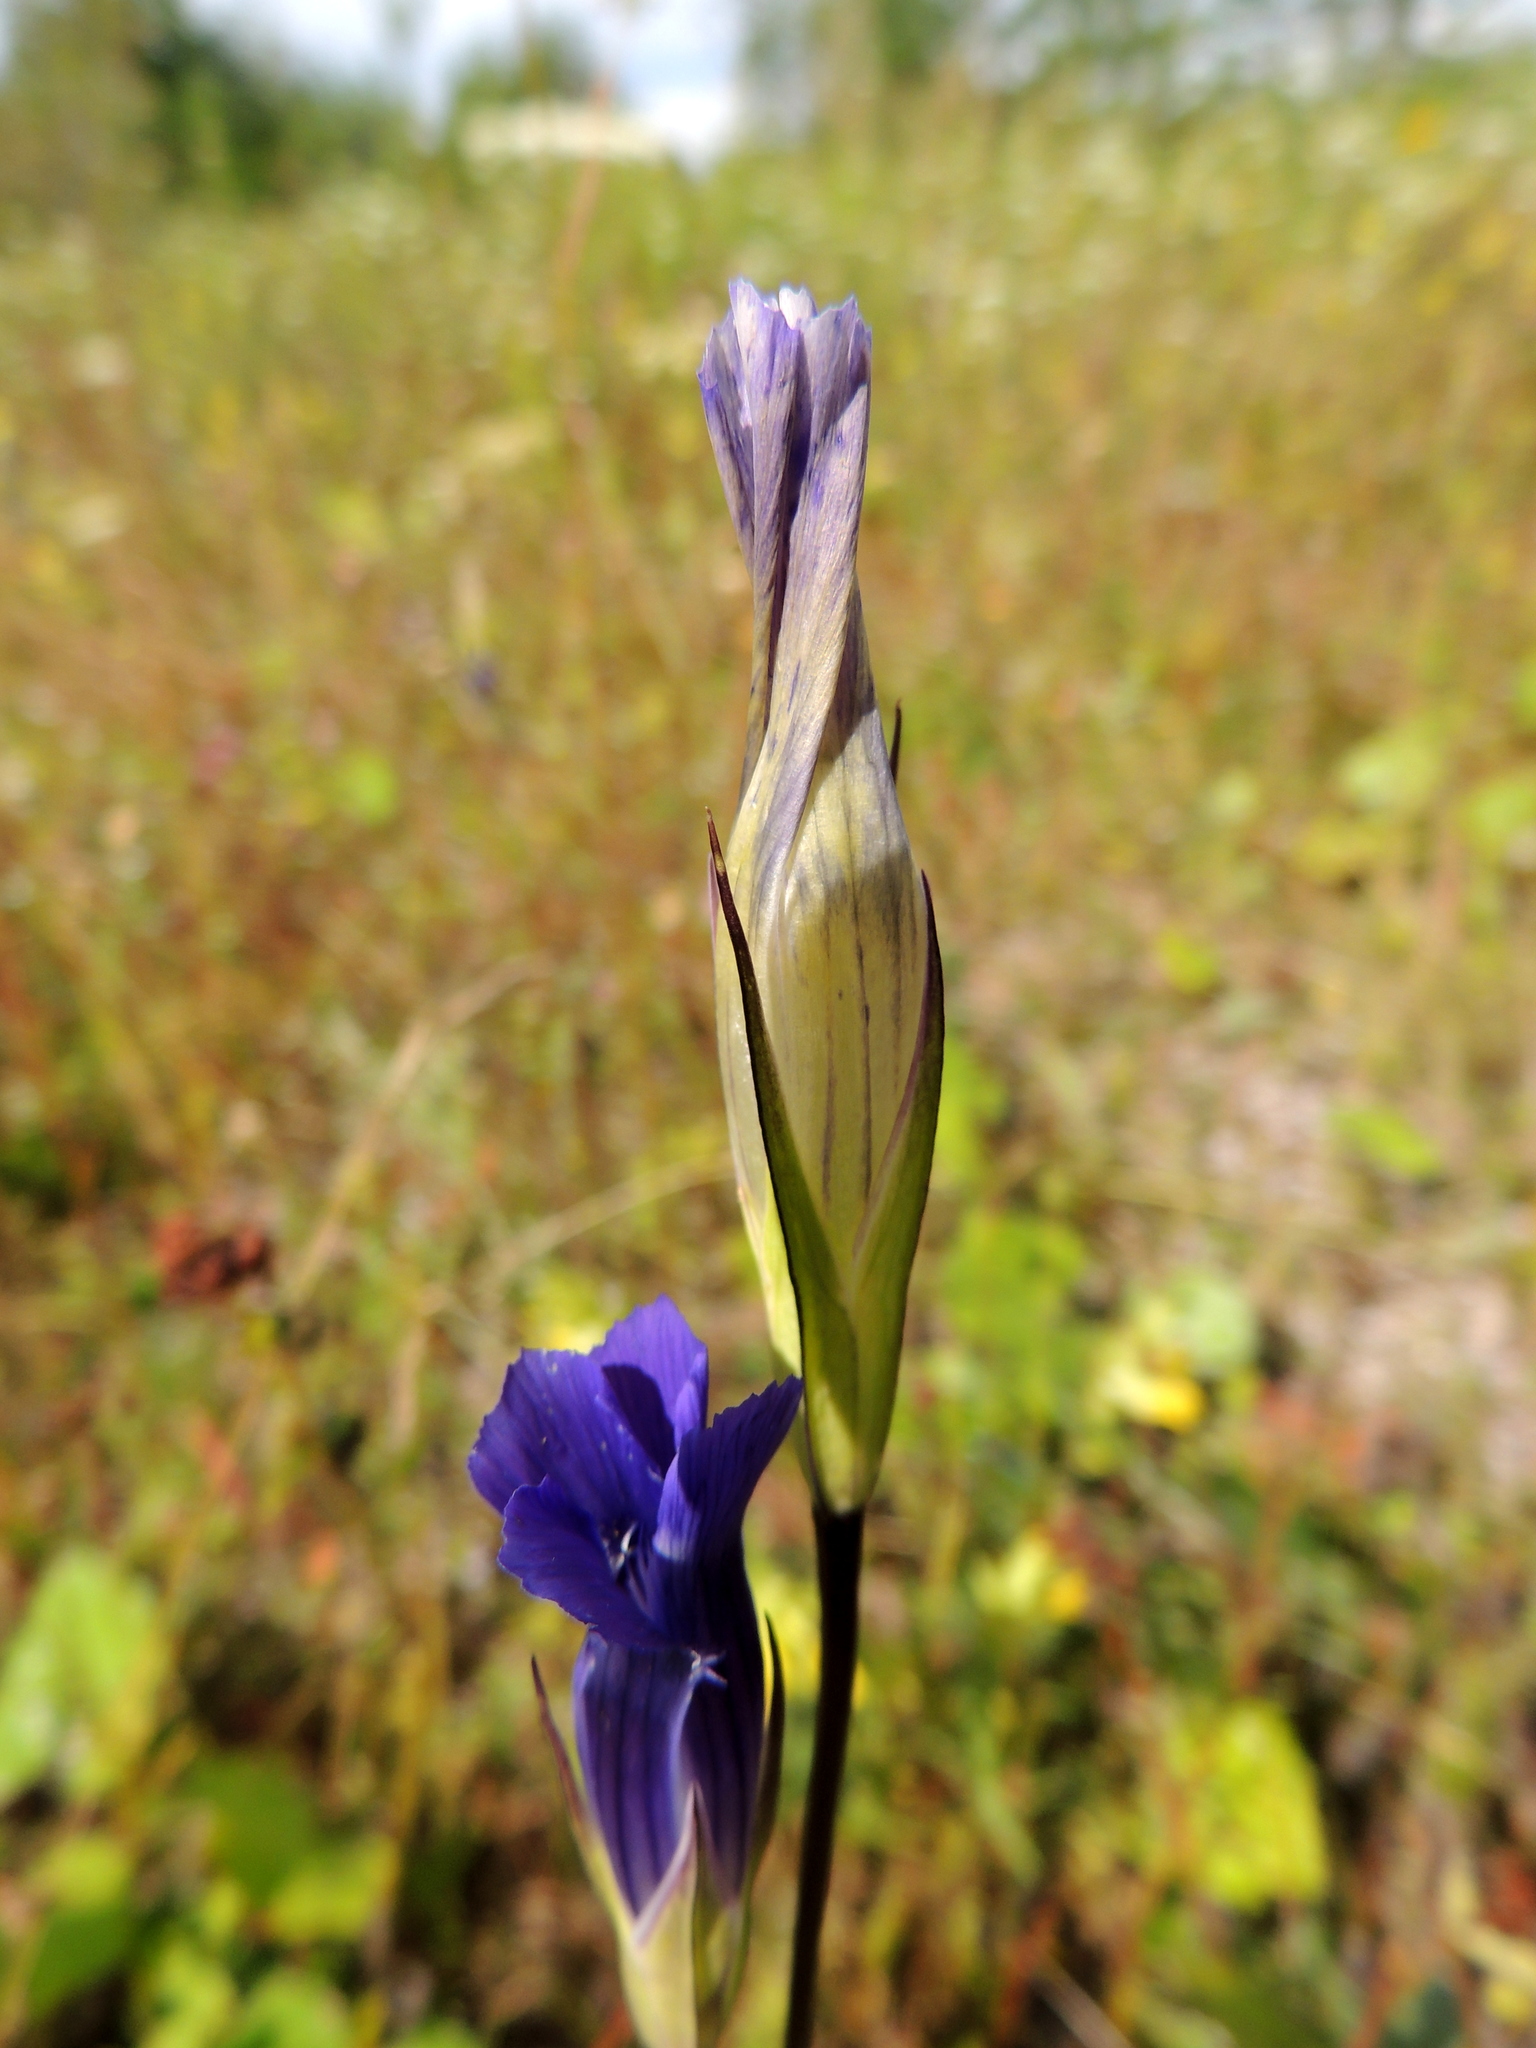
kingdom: Plantae
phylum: Tracheophyta
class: Magnoliopsida
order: Gentianales
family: Gentianaceae
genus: Gentianopsis
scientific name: Gentianopsis barbata
